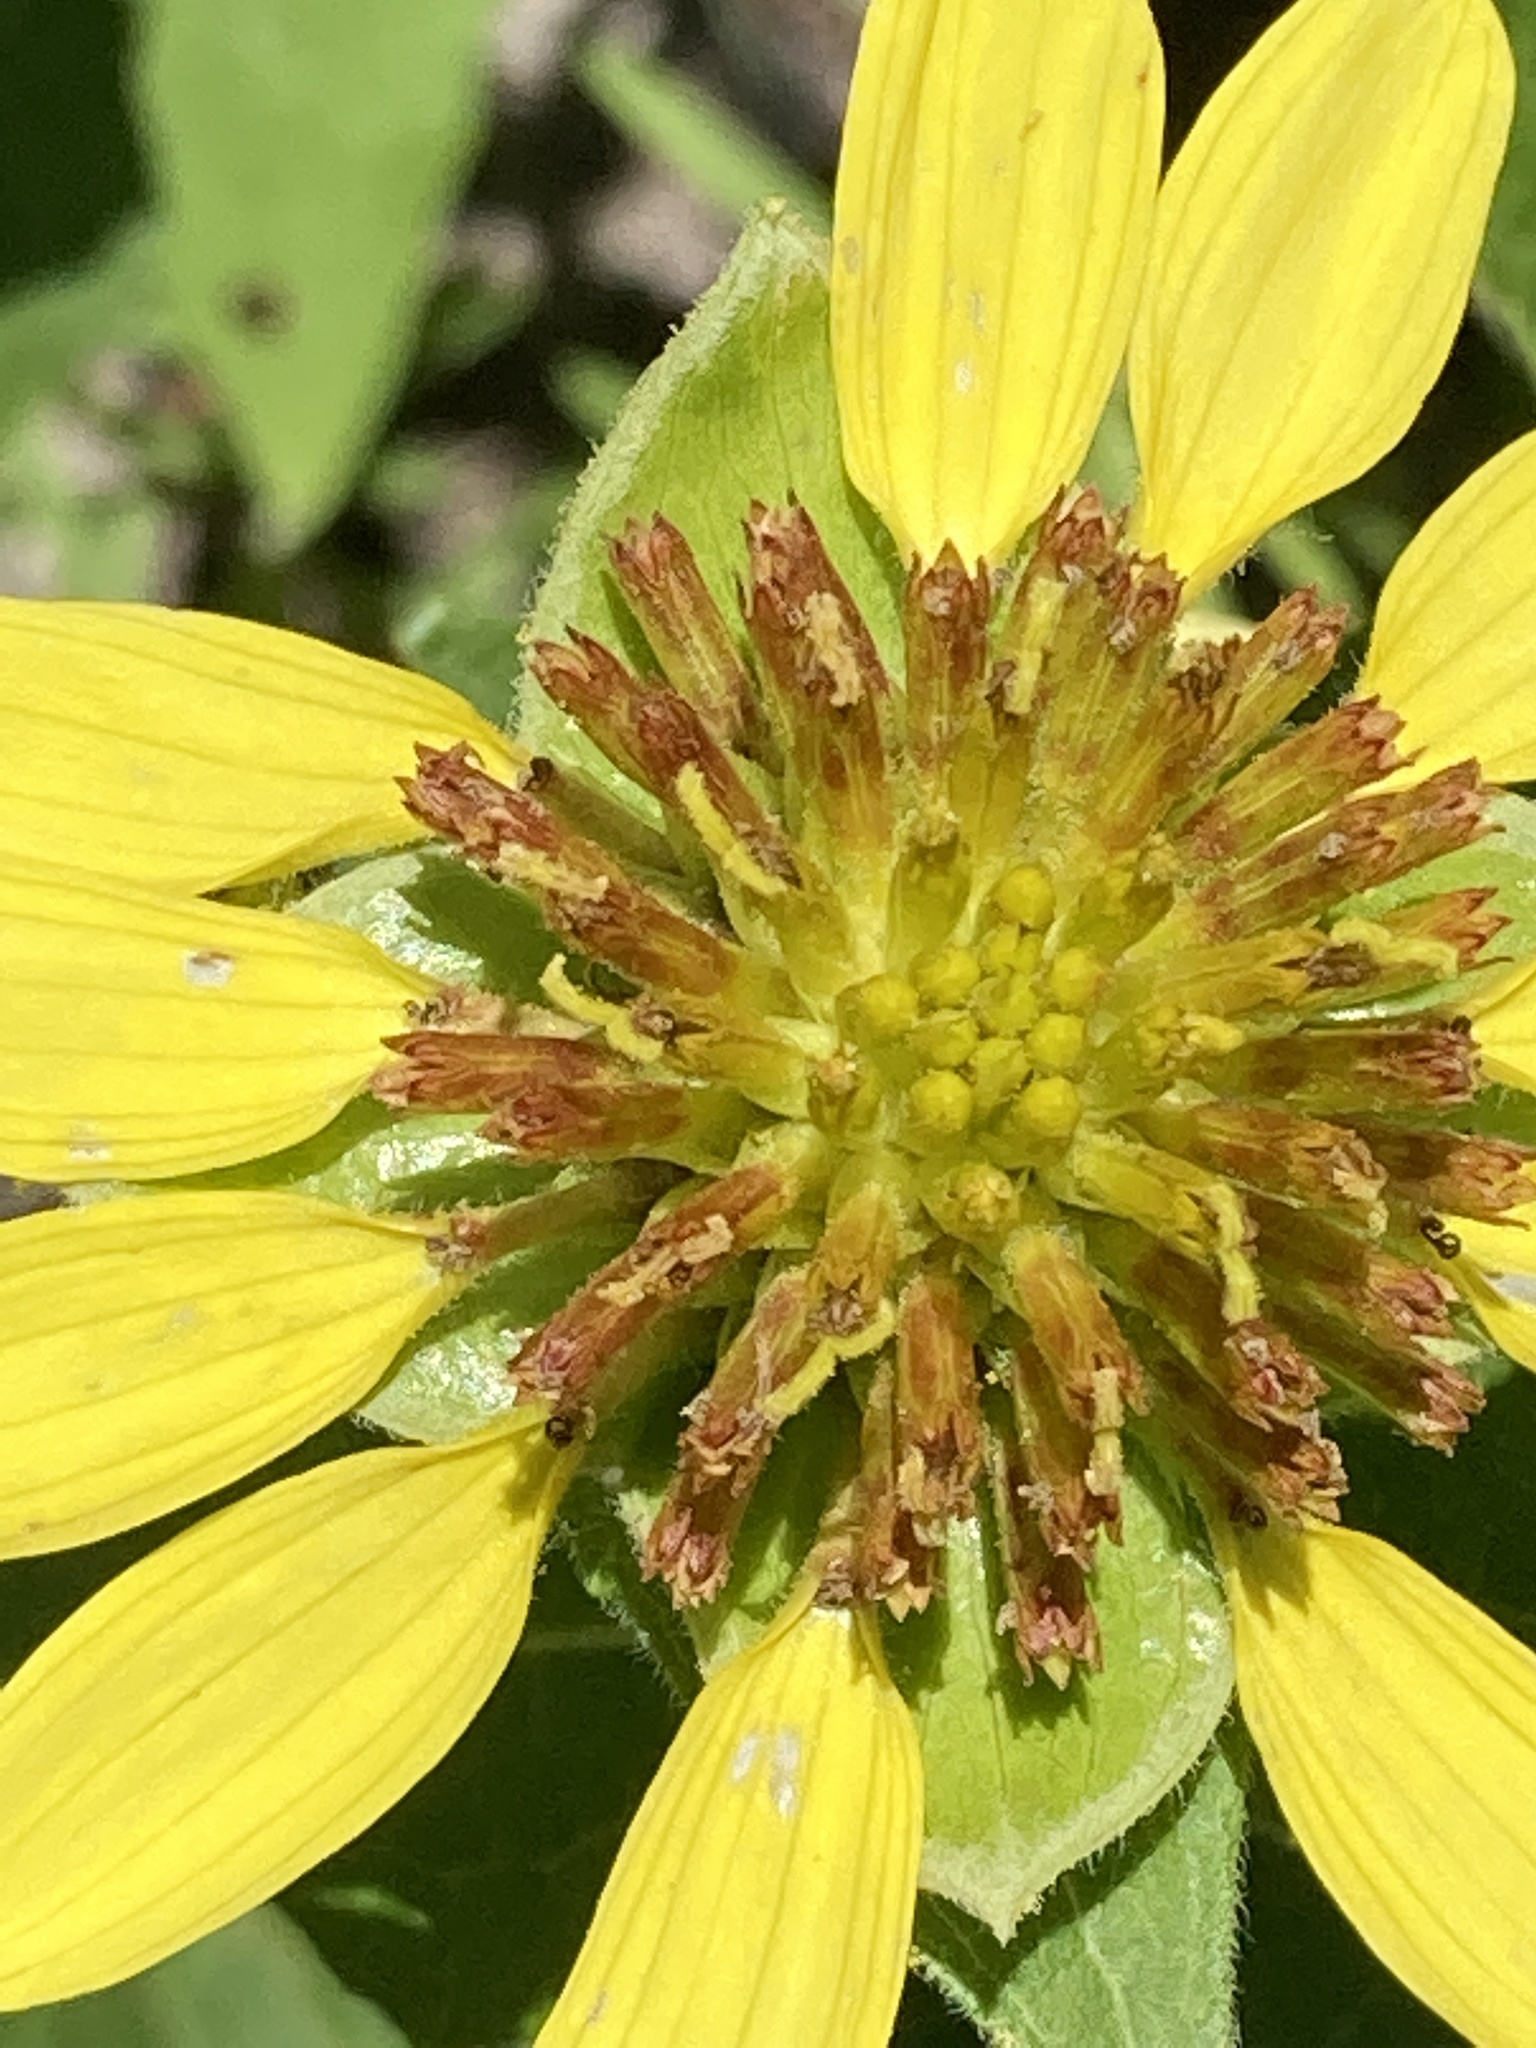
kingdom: Plantae
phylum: Tracheophyta
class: Magnoliopsida
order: Asterales
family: Asteraceae
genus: Tetragonotheca
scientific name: Tetragonotheca helianthoides
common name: Pineland-ginseng
